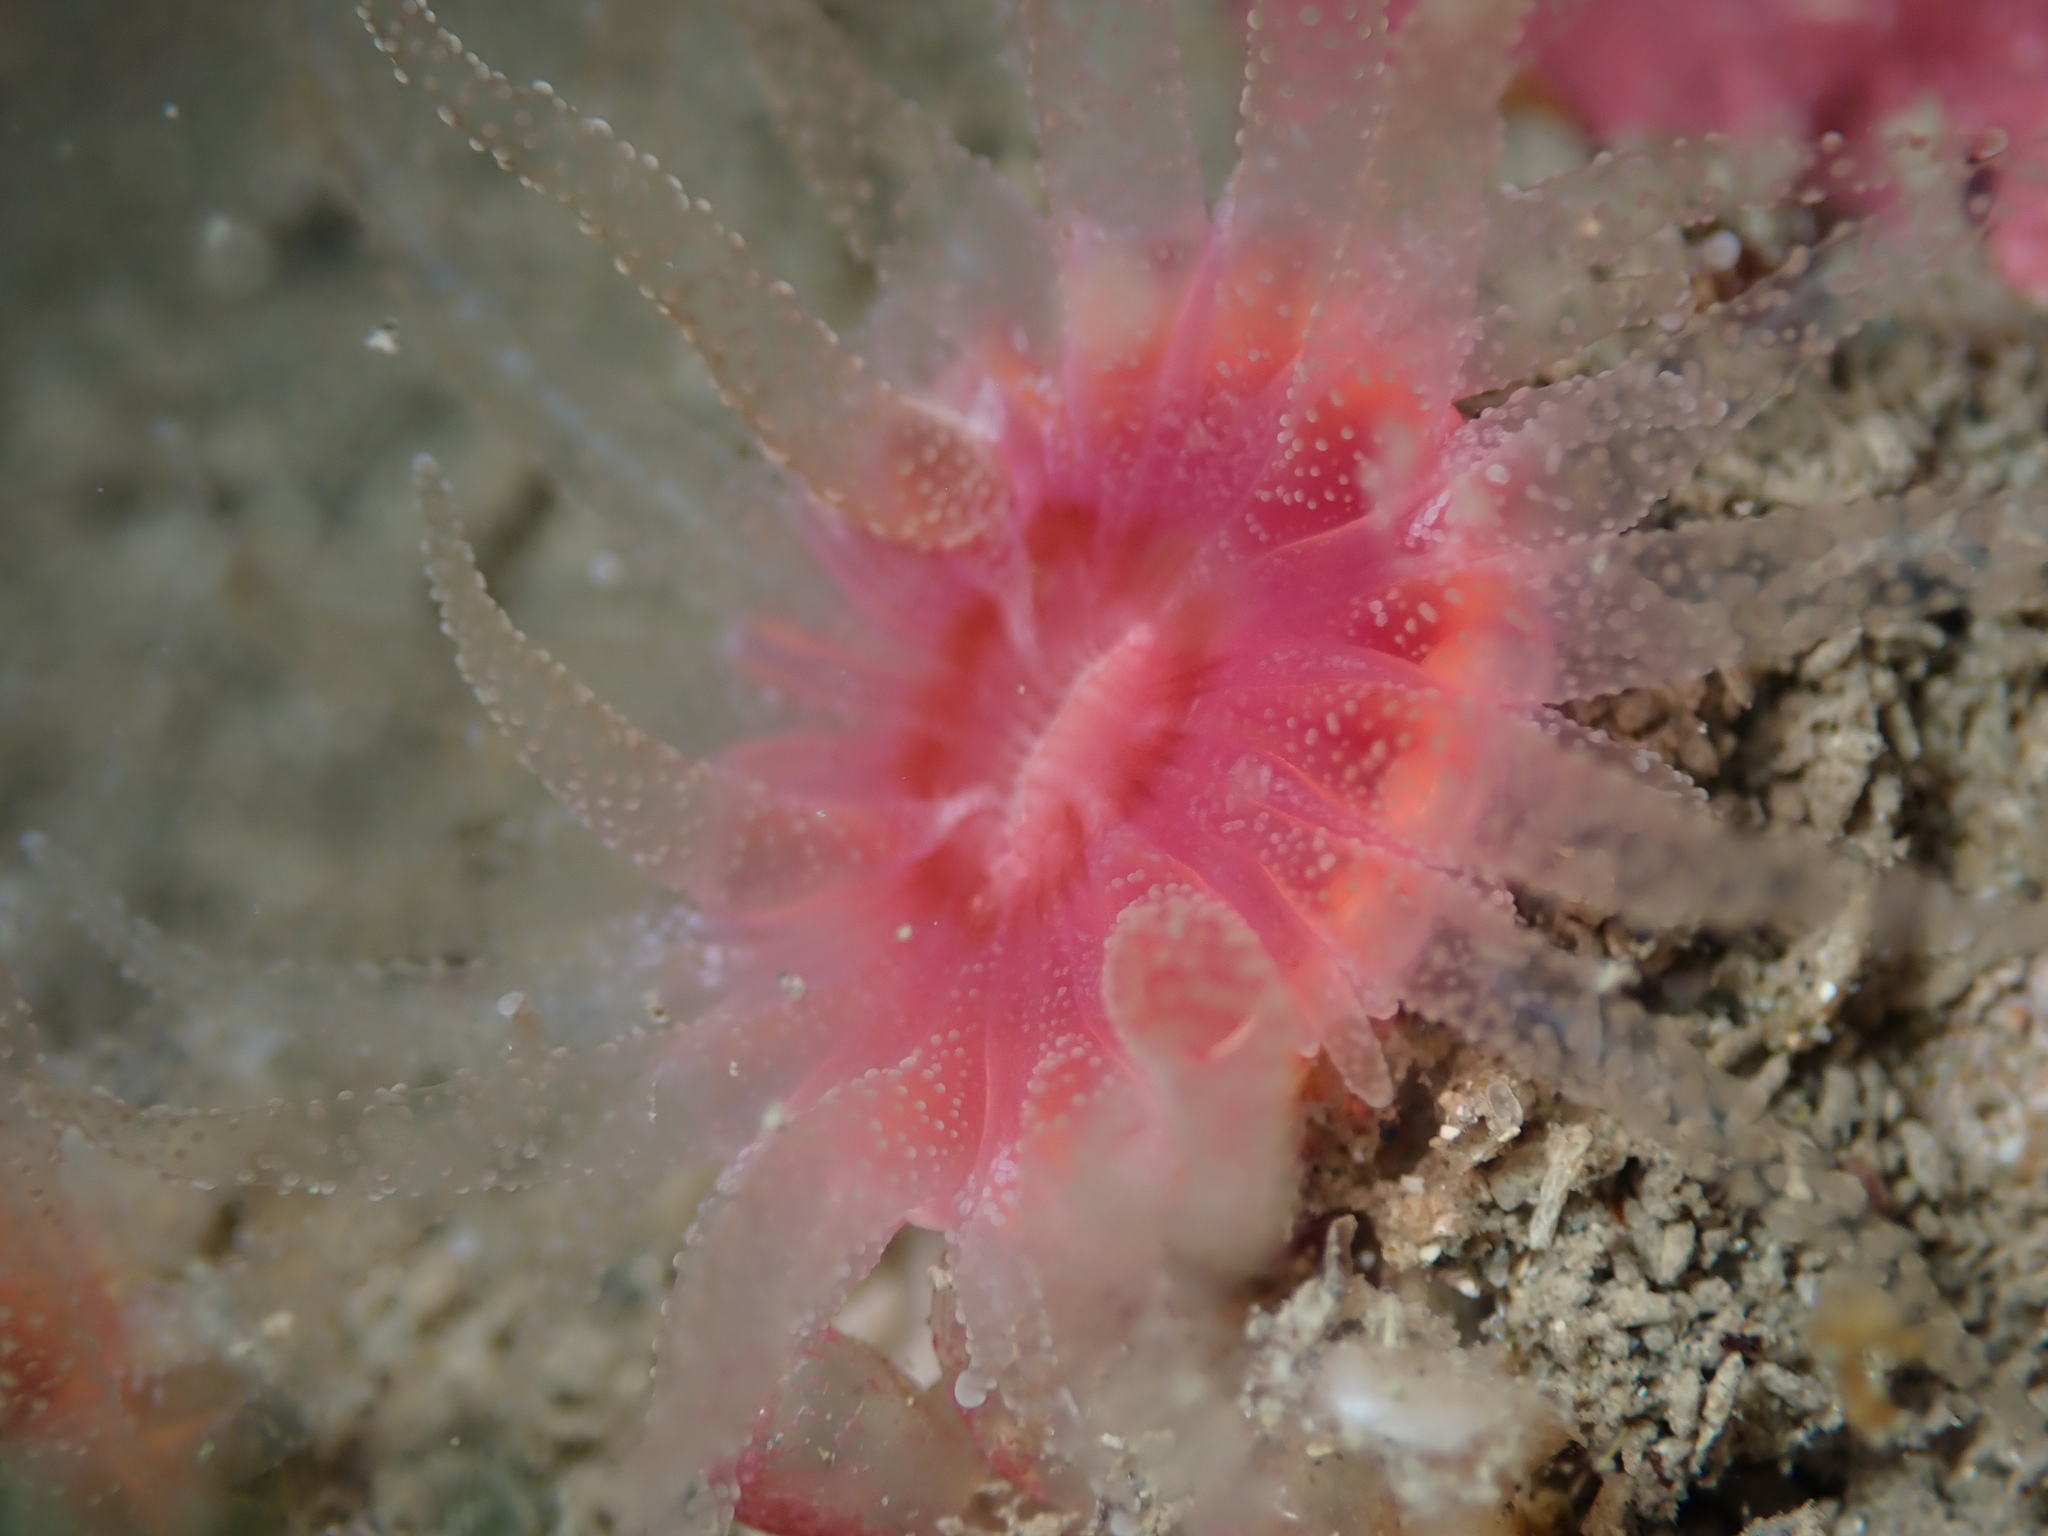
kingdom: Animalia
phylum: Cnidaria
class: Anthozoa
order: Scleractinia
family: Flabellidae
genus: Monomyces
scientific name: Monomyces rubrum
